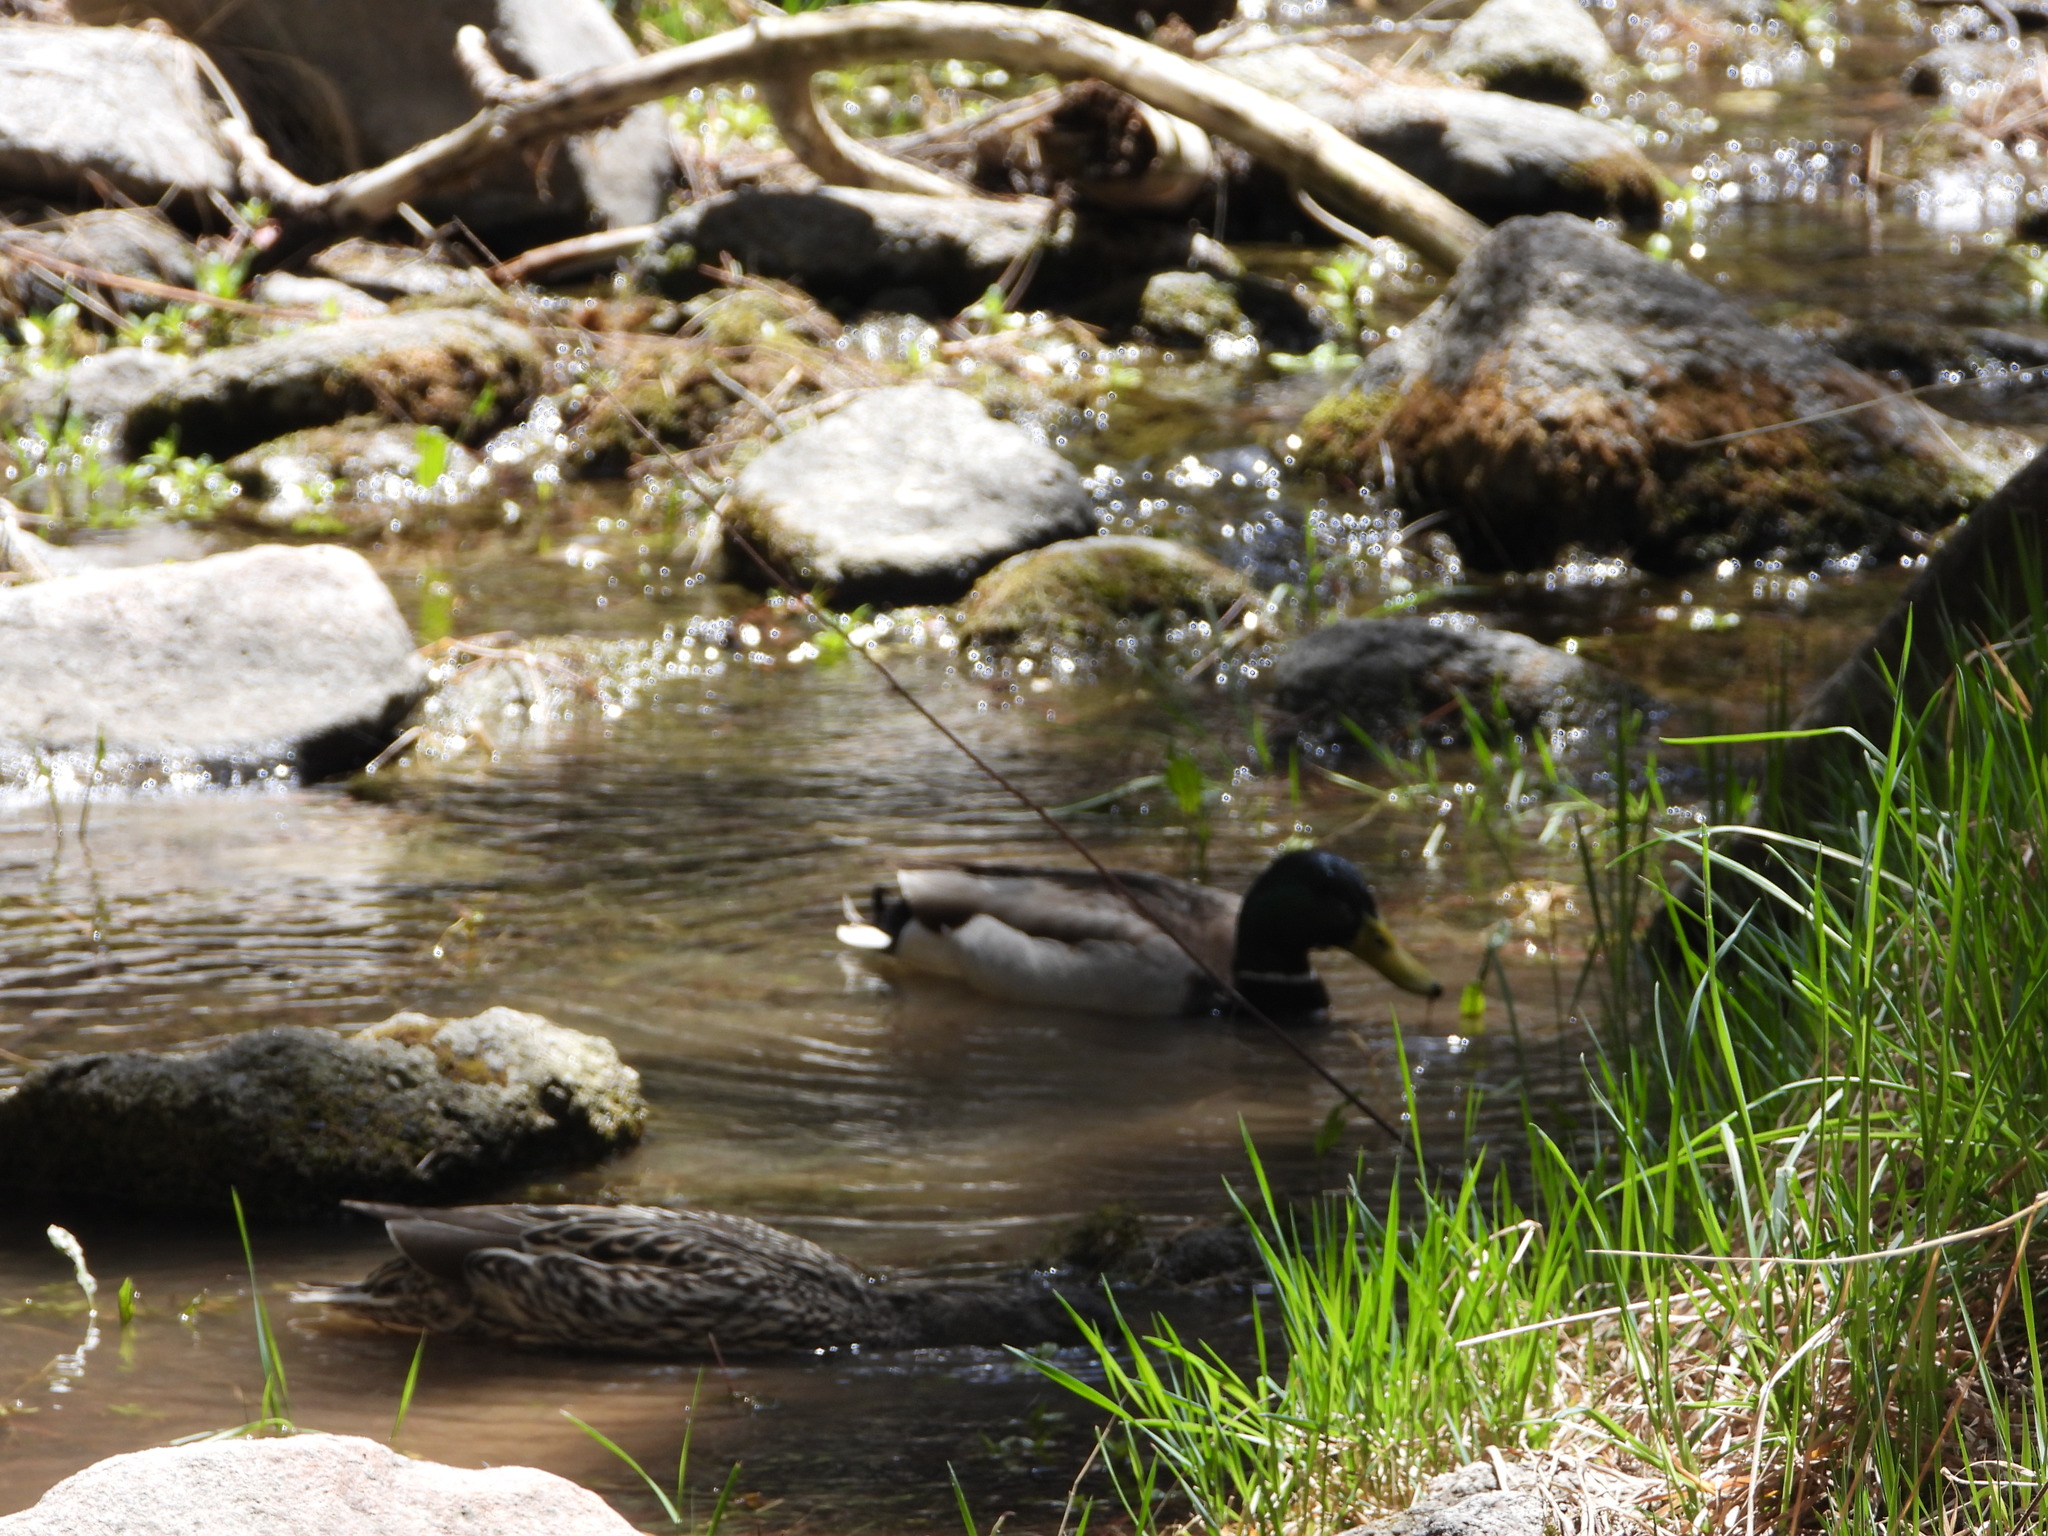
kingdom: Animalia
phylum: Chordata
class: Aves
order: Anseriformes
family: Anatidae
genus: Anas
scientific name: Anas platyrhynchos
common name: Mallard
